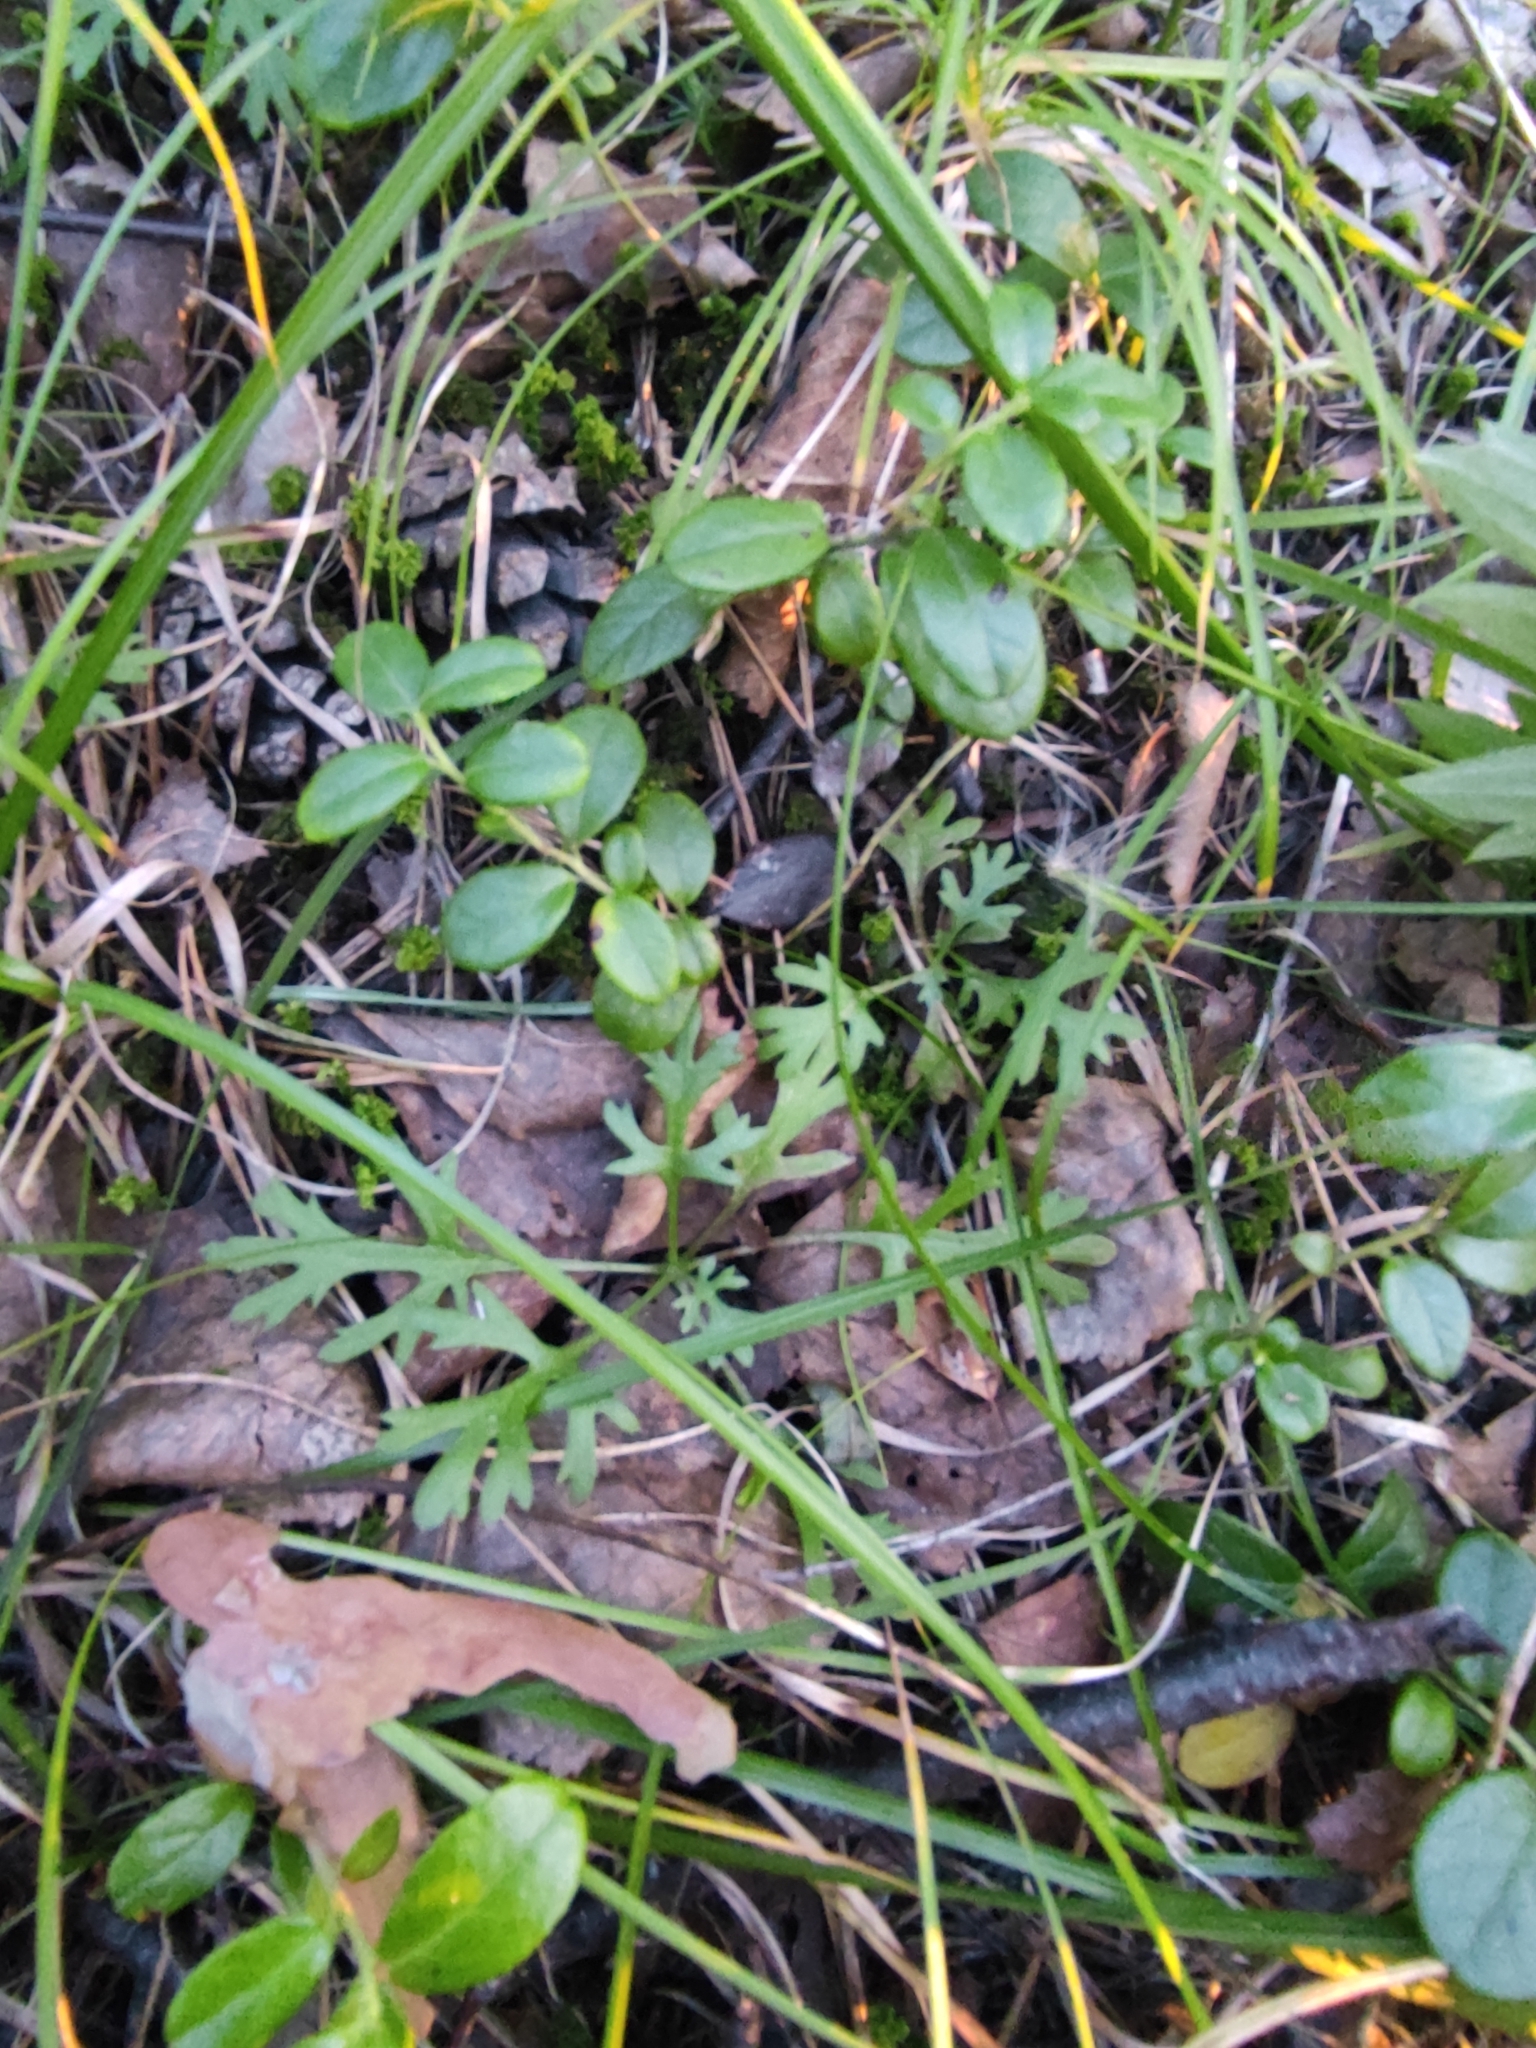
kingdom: Plantae
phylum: Tracheophyta
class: Magnoliopsida
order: Asterales
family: Asteraceae
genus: Chrysanthemum
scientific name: Chrysanthemum zawadzkii
